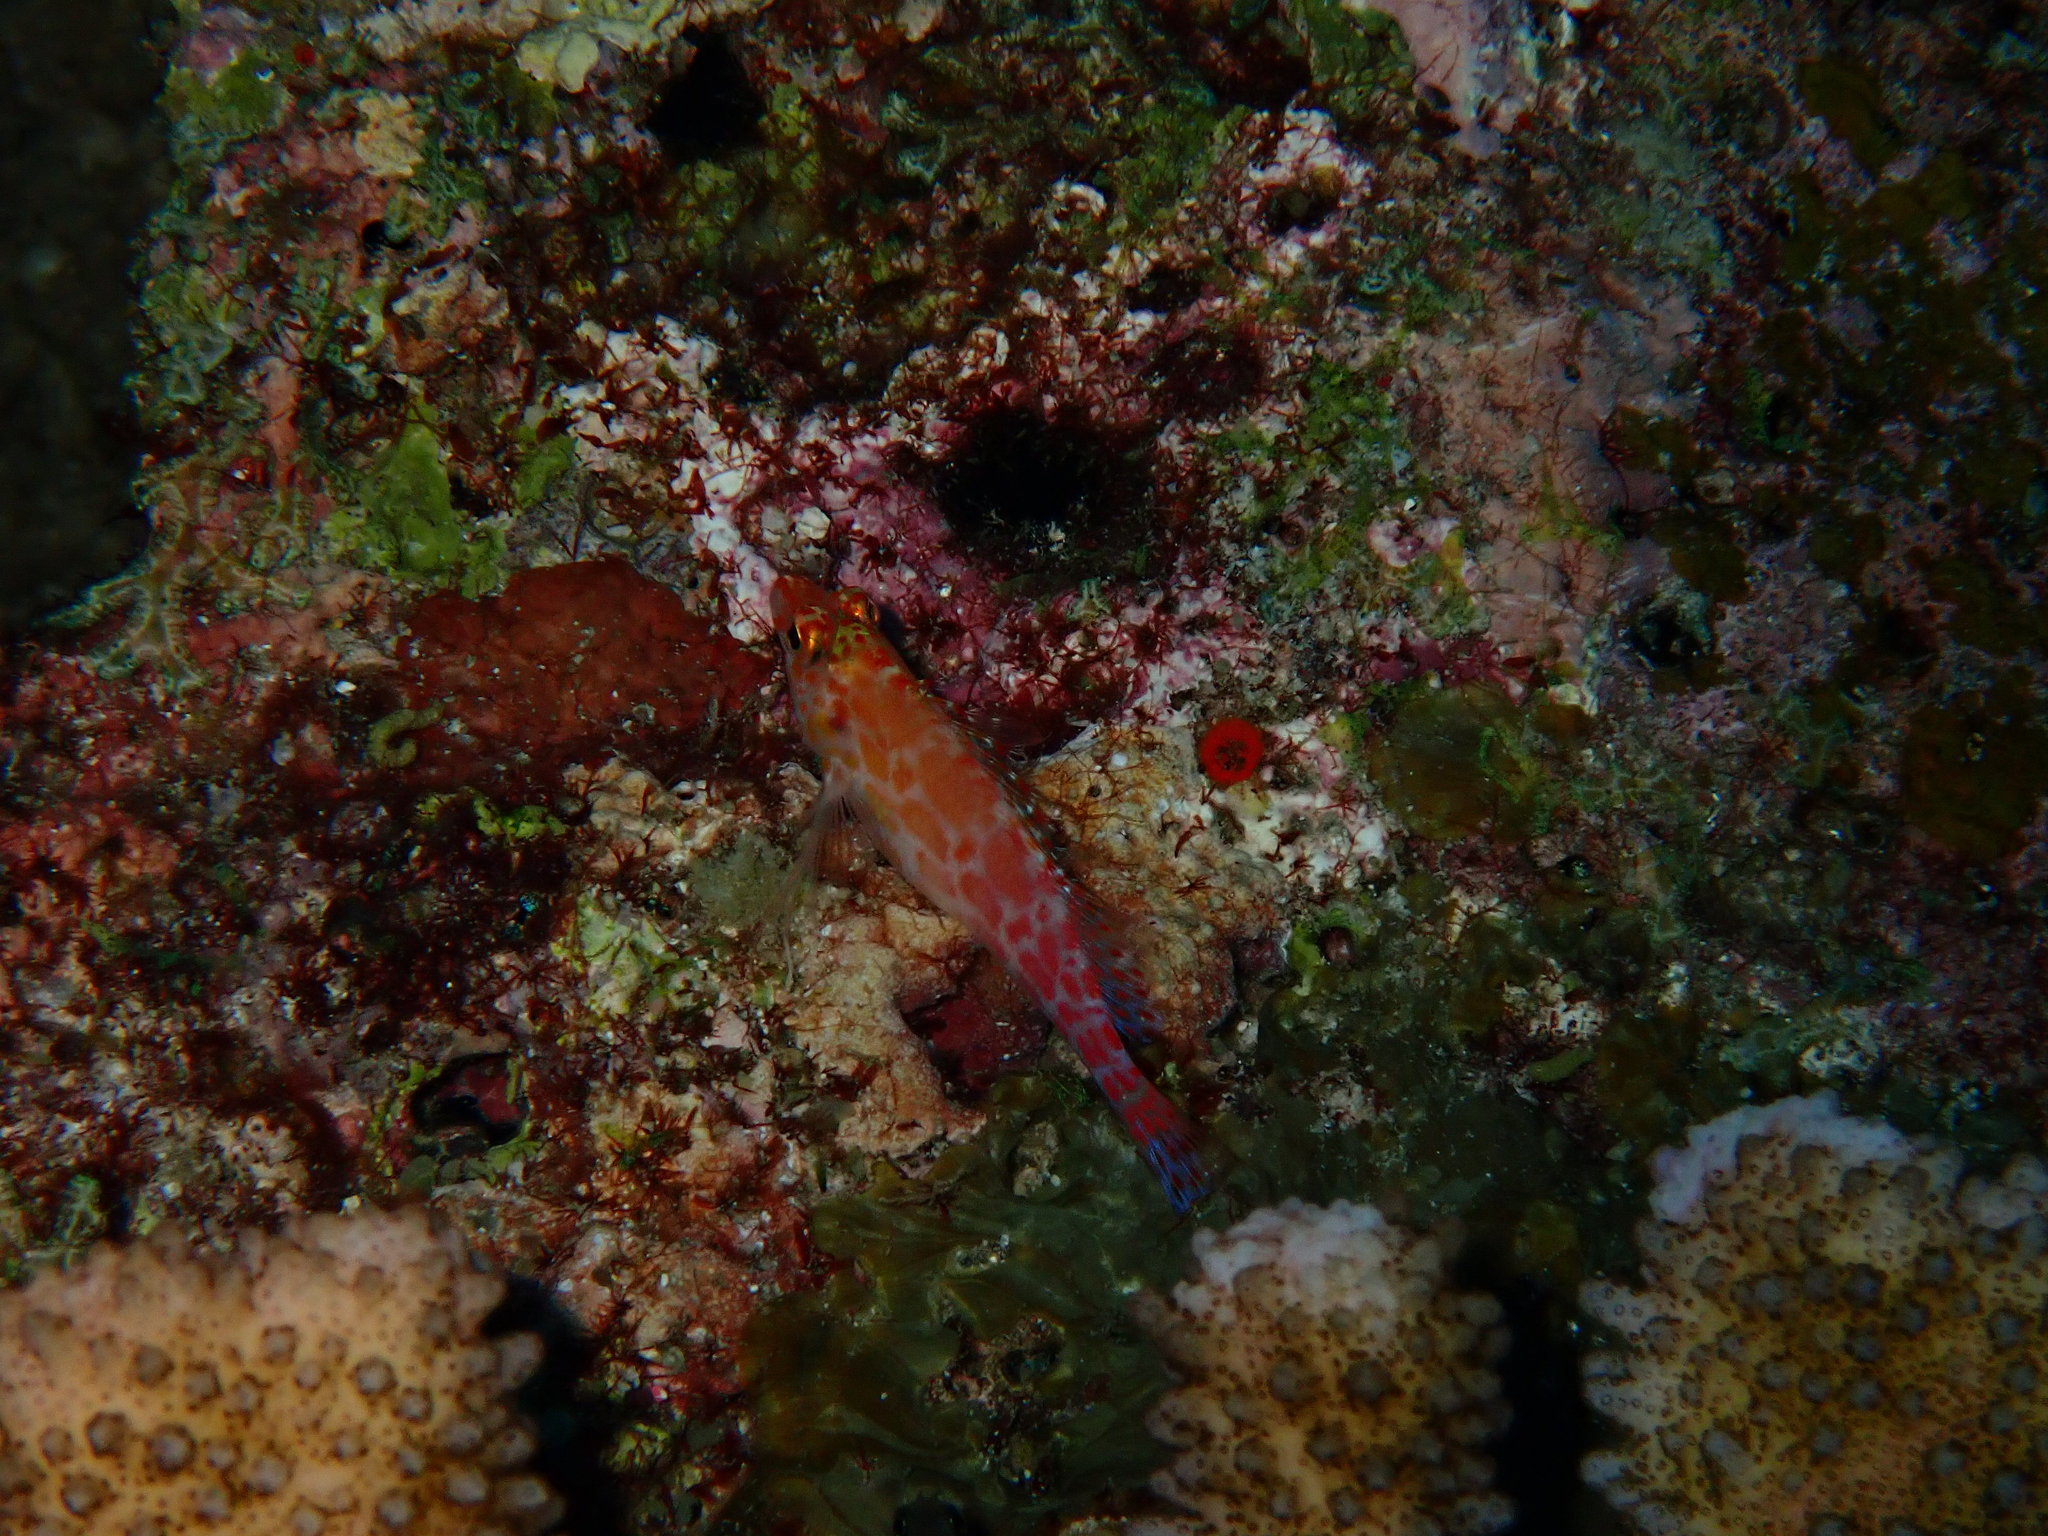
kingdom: Animalia
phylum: Chordata
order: Perciformes
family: Cirrhitidae
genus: Cirrhitichthys
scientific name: Cirrhitichthys oxycephalus
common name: Spotted hawkfish
